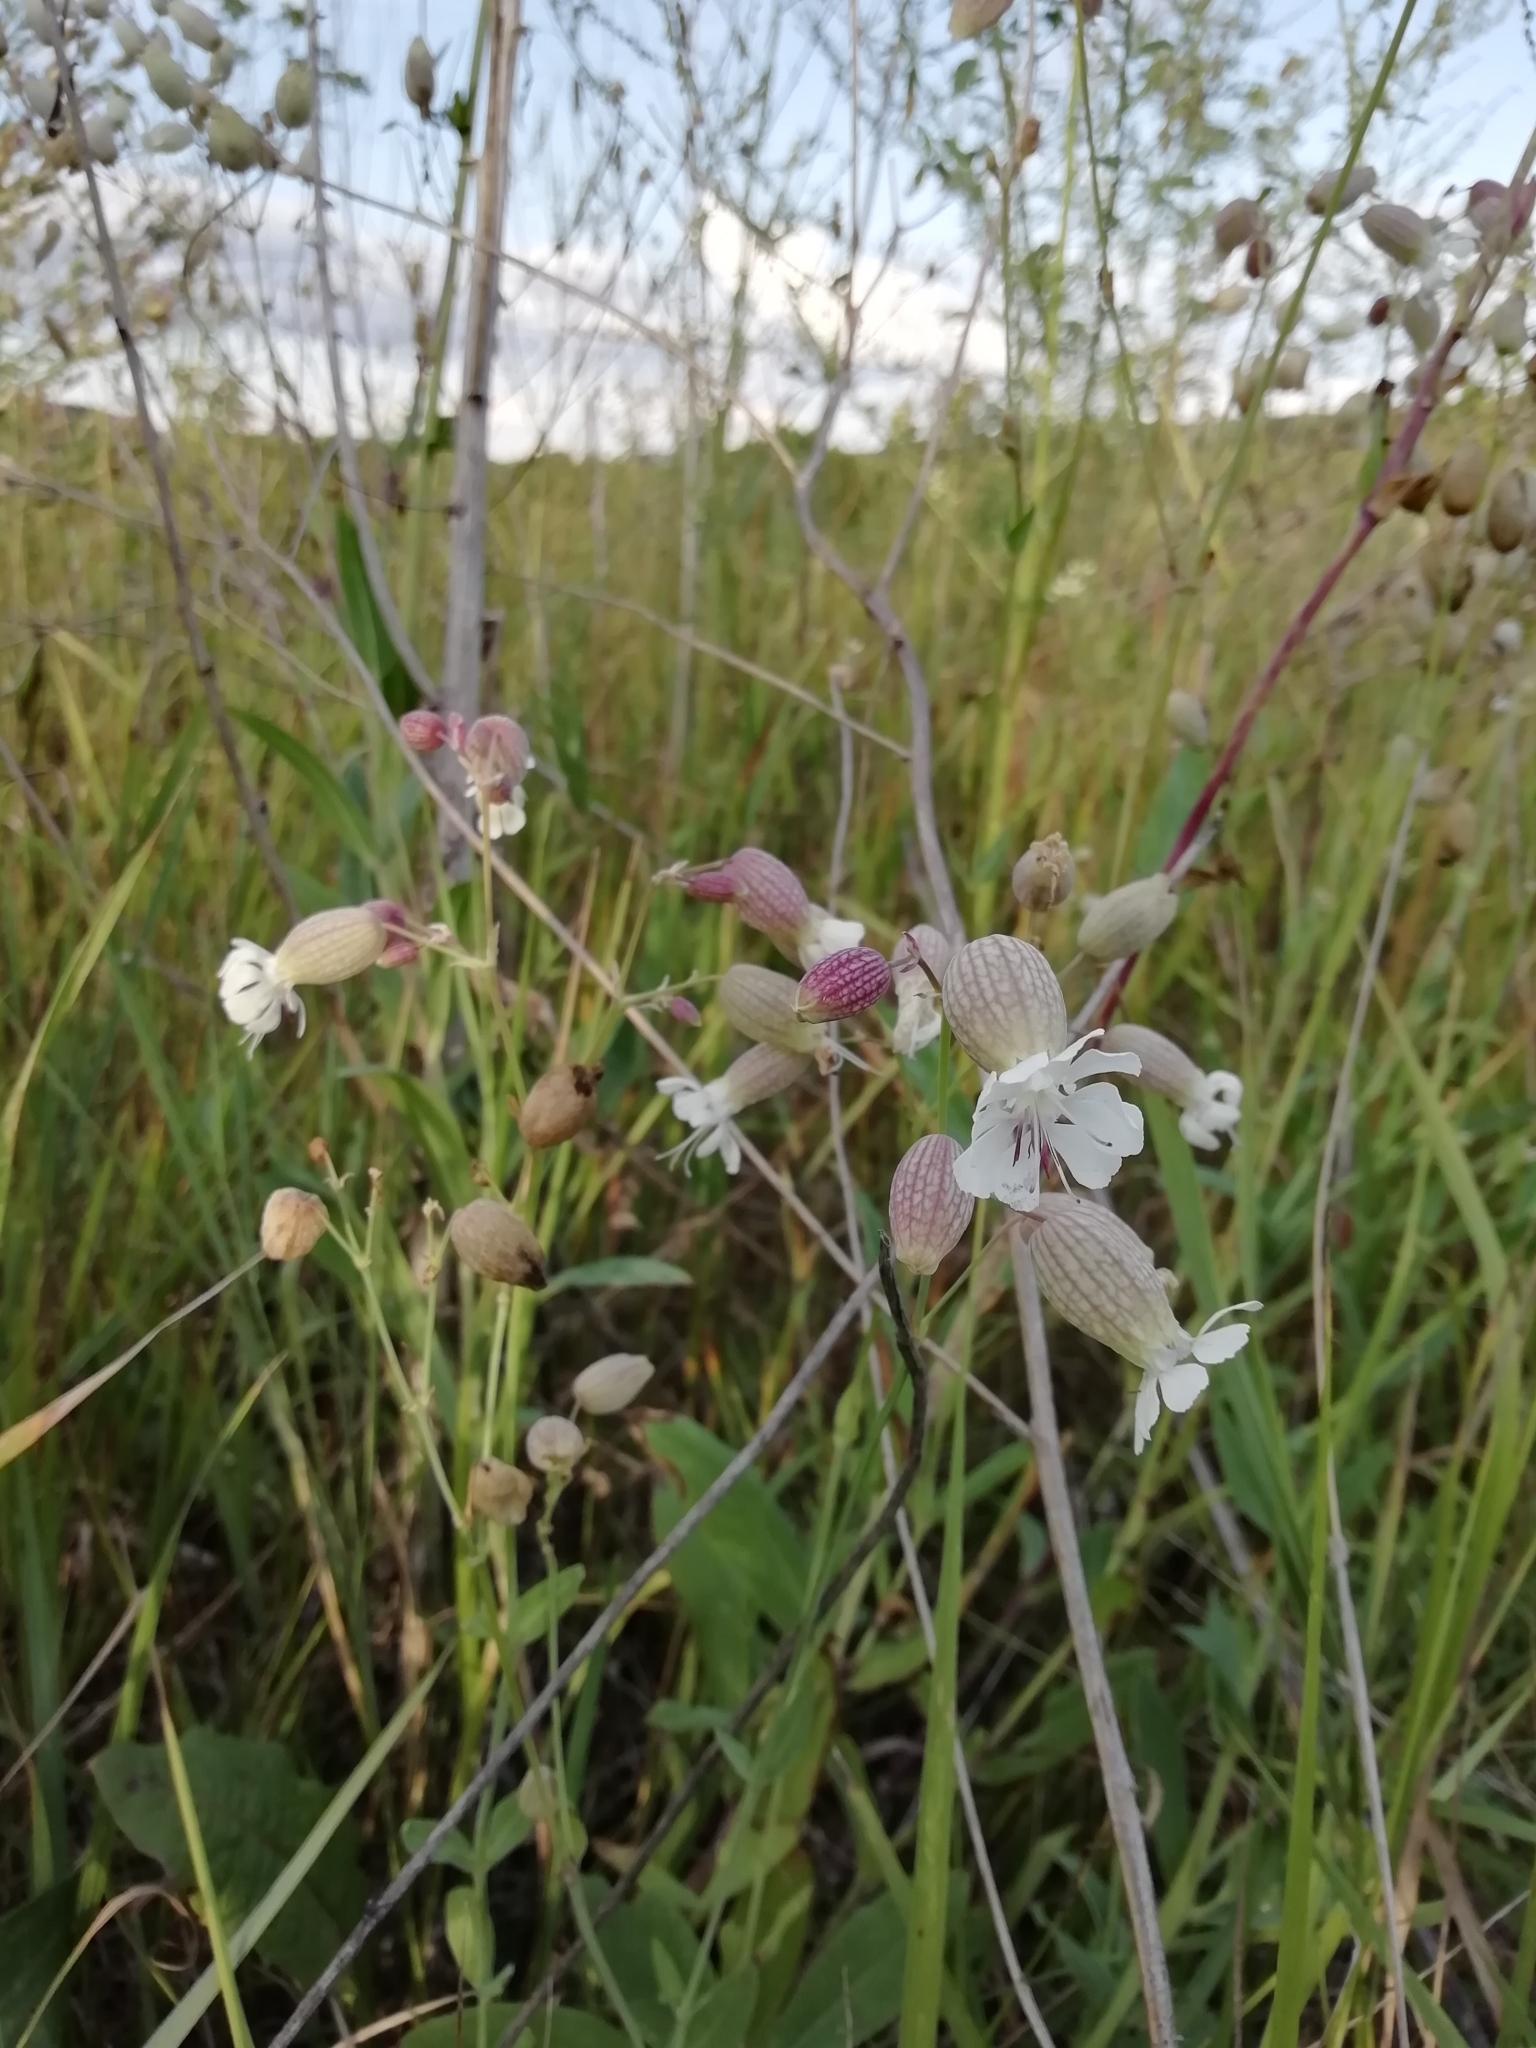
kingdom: Plantae
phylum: Tracheophyta
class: Magnoliopsida
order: Caryophyllales
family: Caryophyllaceae
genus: Silene
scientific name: Silene vulgaris
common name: Bladder campion
